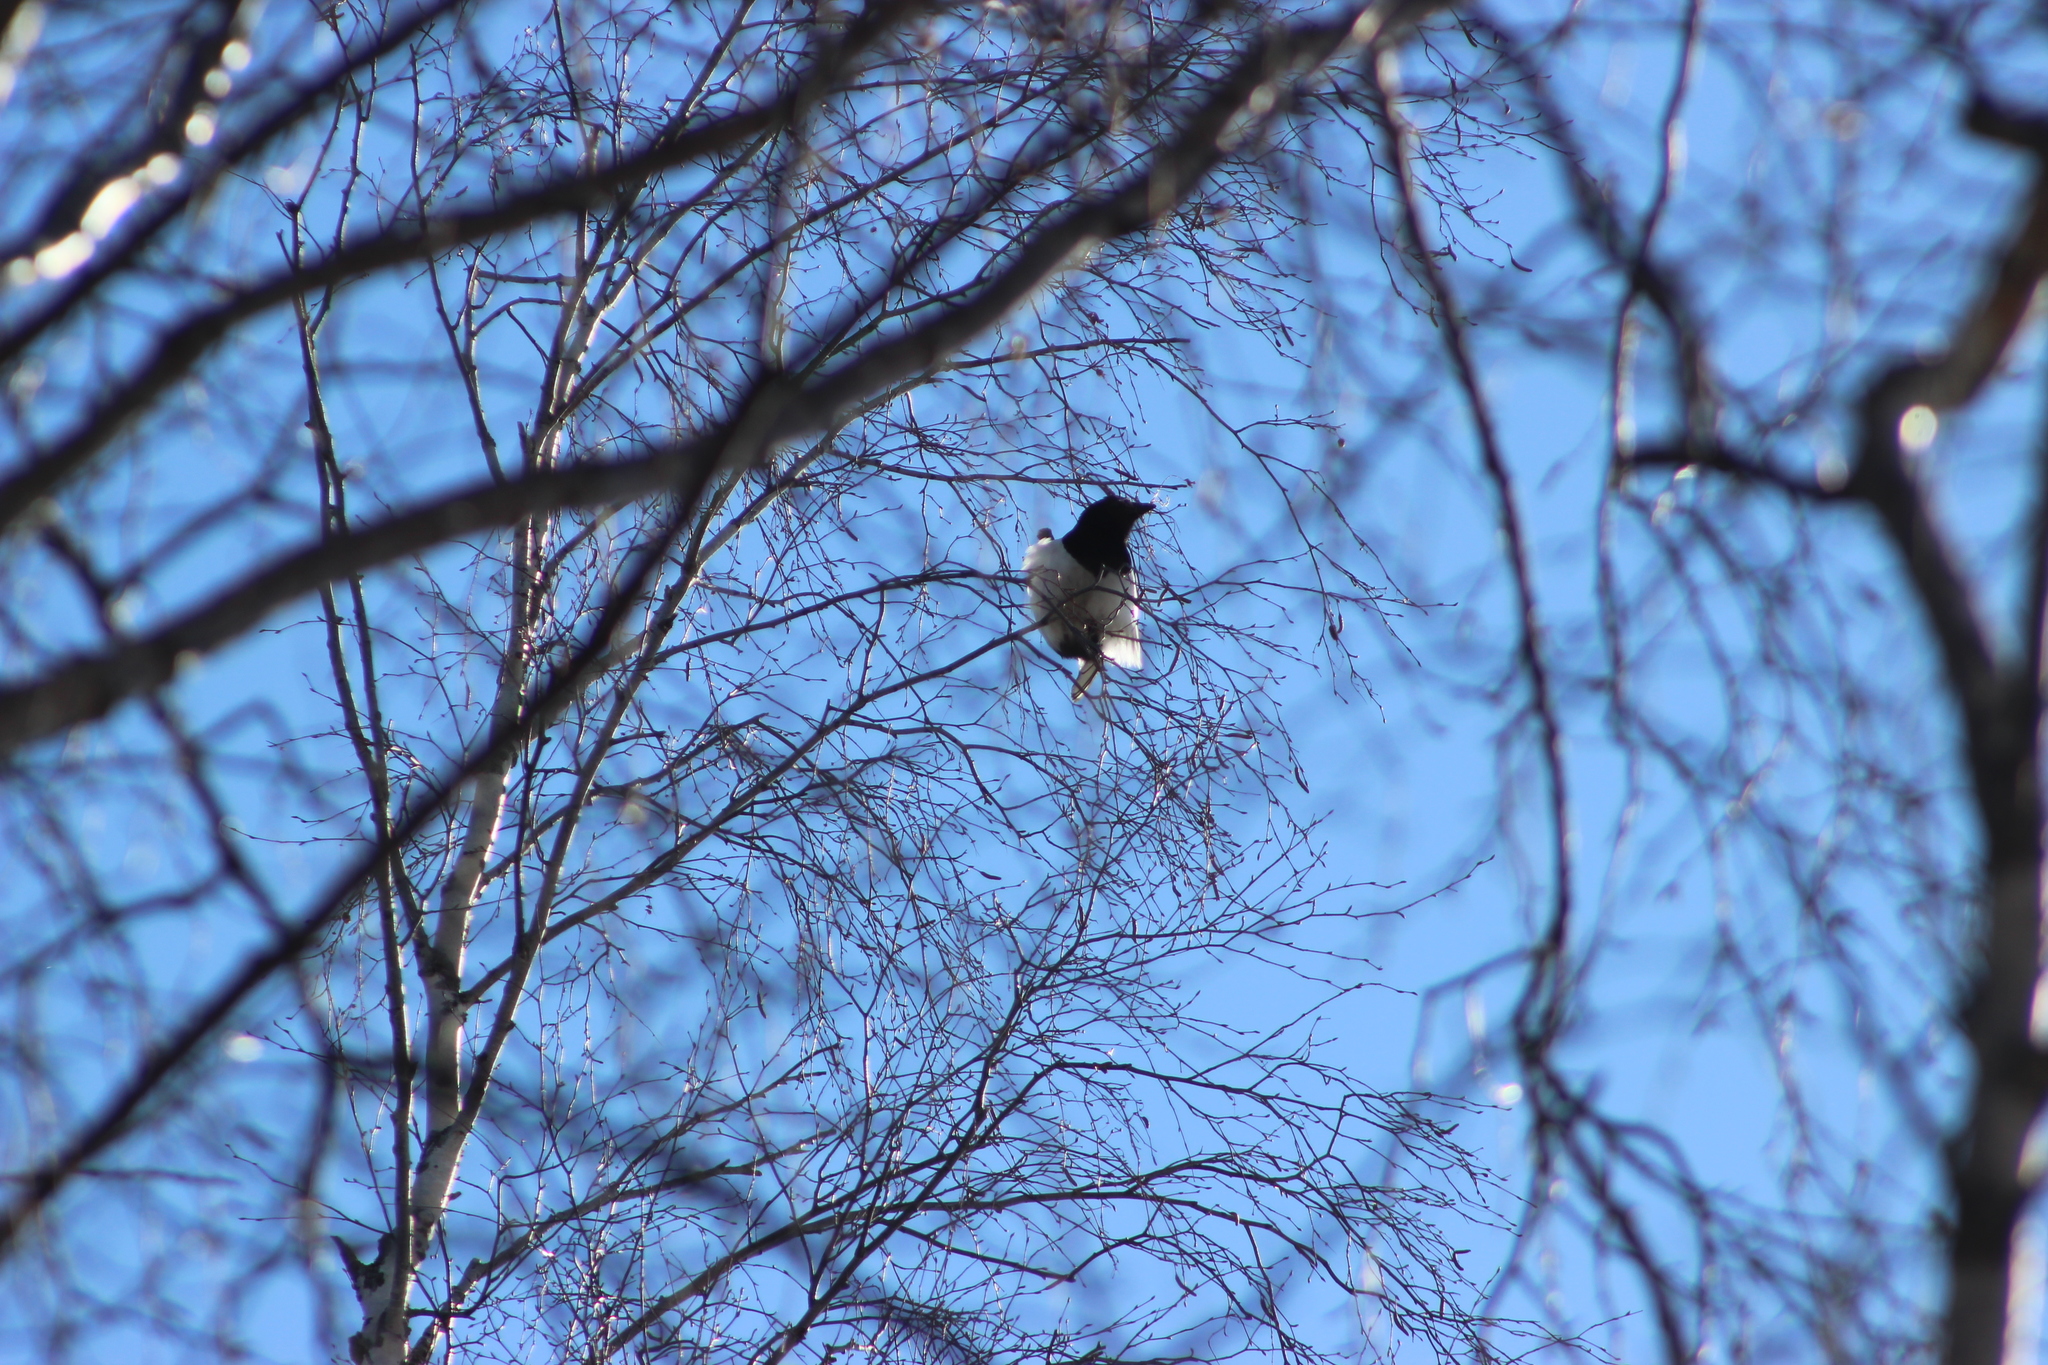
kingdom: Animalia
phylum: Chordata
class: Aves
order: Passeriformes
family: Corvidae
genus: Pica
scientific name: Pica pica
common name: Eurasian magpie
